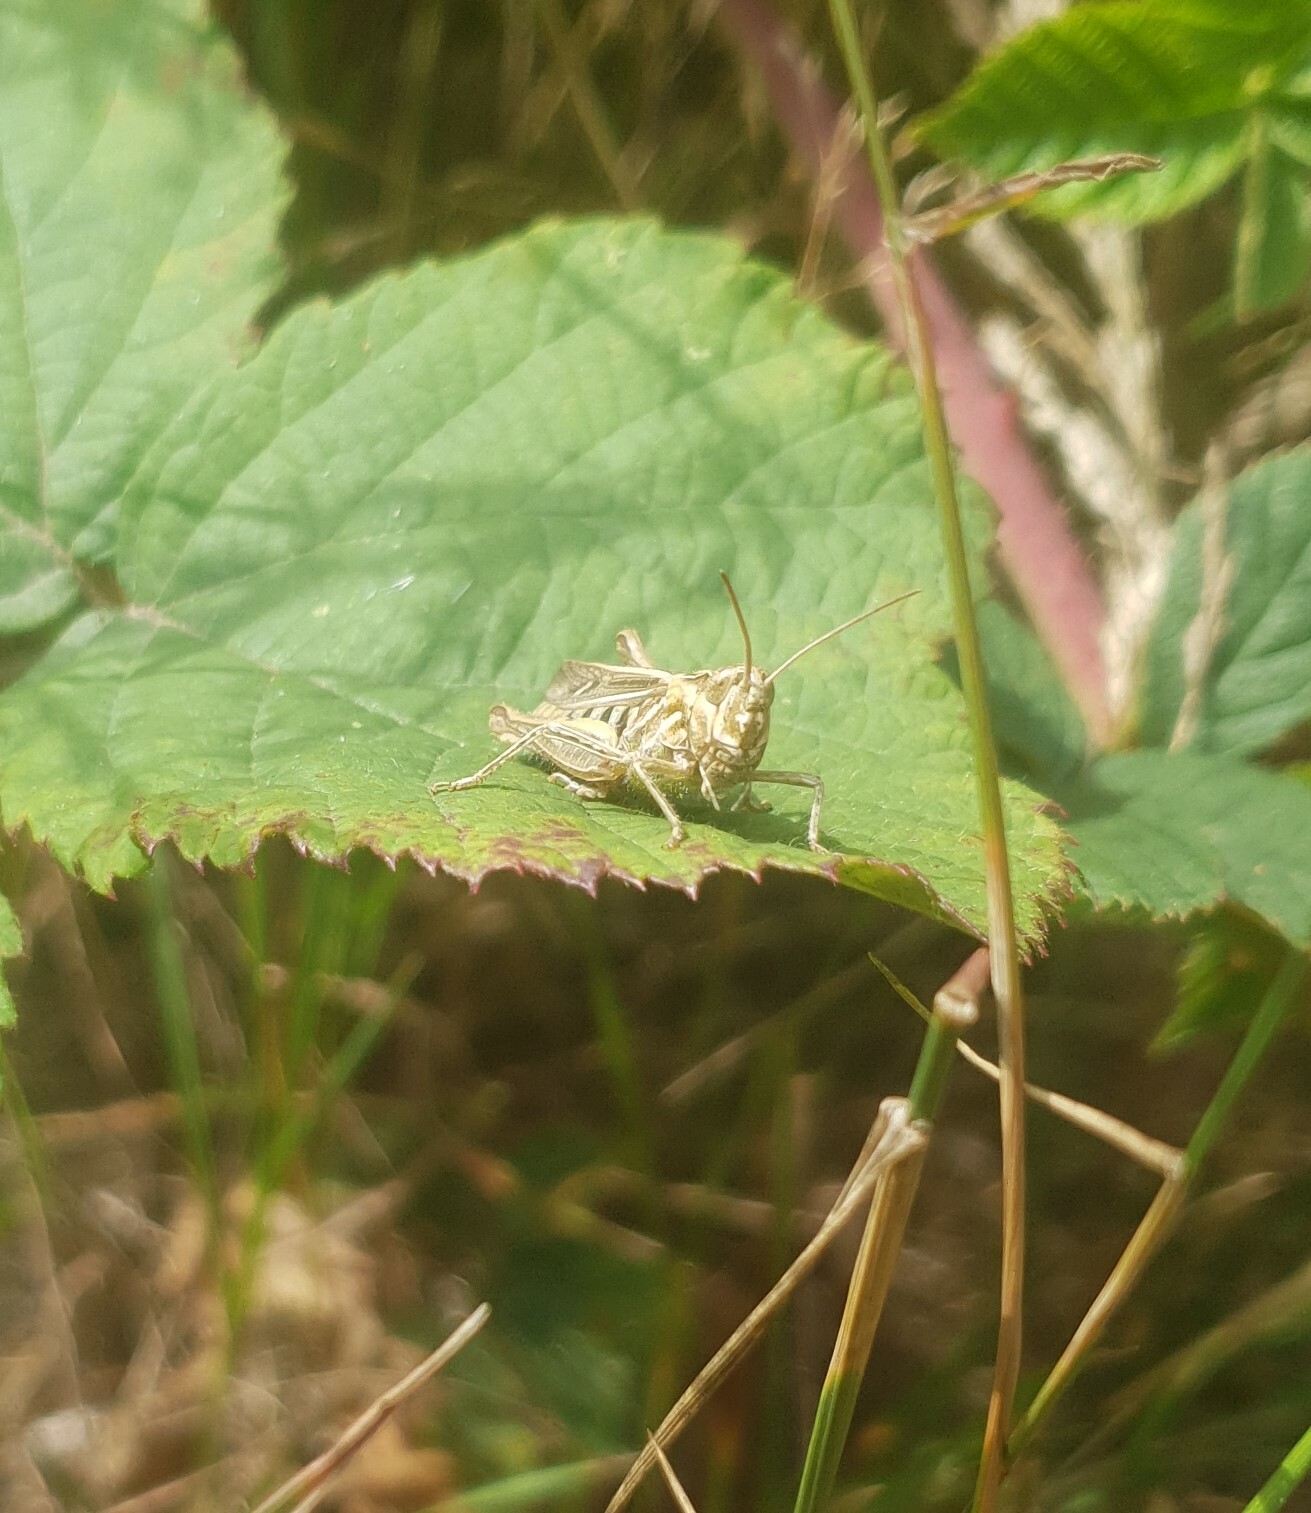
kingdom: Animalia
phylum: Arthropoda
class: Insecta
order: Orthoptera
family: Acrididae
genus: Glyptobothrus
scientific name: Glyptobothrus
